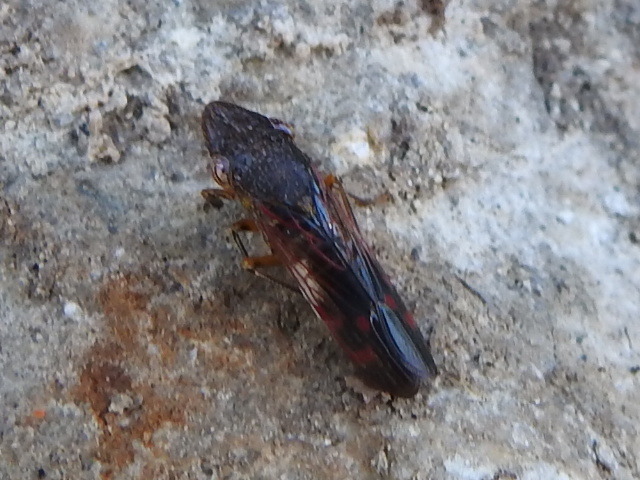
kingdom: Animalia
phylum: Arthropoda
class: Insecta
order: Hemiptera
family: Cicadellidae
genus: Homalodisca
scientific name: Homalodisca vitripennis
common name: Glassy-winged sharpshooter
